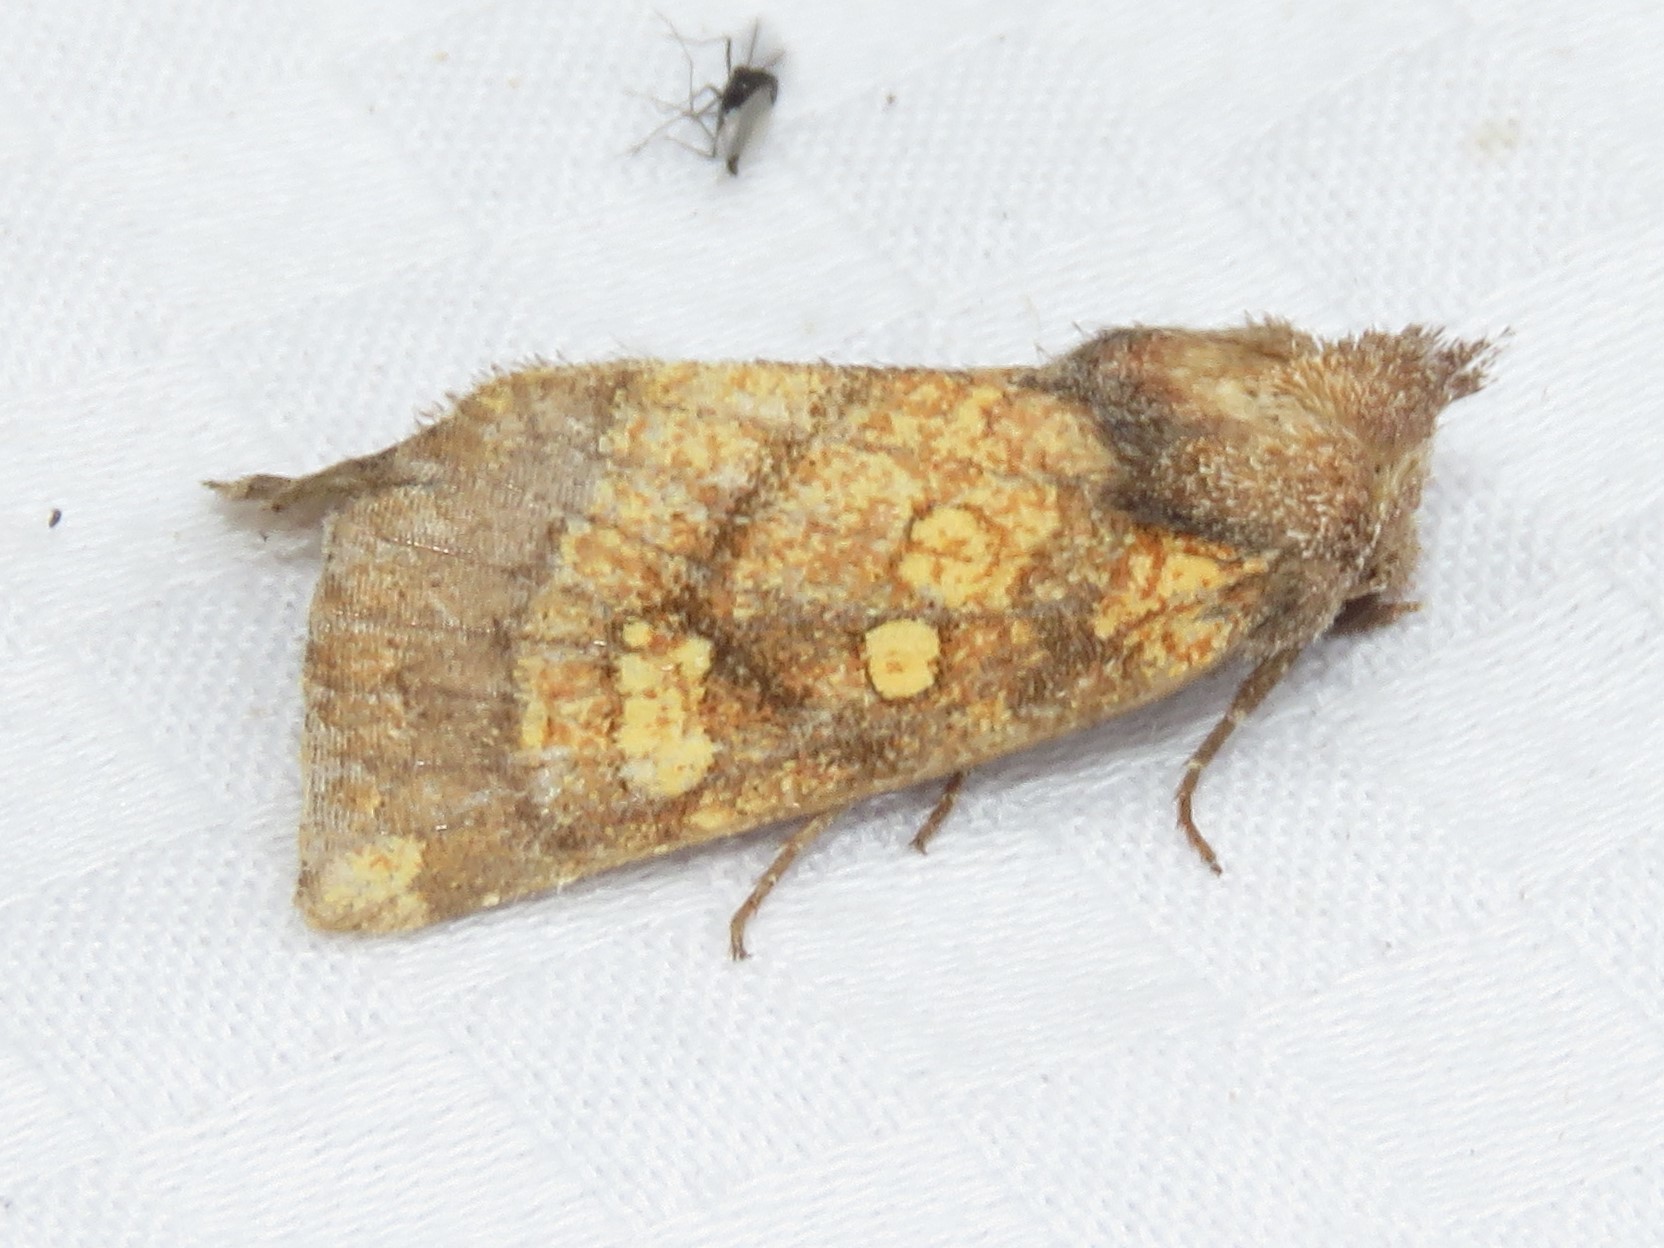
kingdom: Animalia
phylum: Arthropoda
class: Insecta
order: Lepidoptera
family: Noctuidae
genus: Papaipema
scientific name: Papaipema impecuniosa
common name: Aster borer moth
